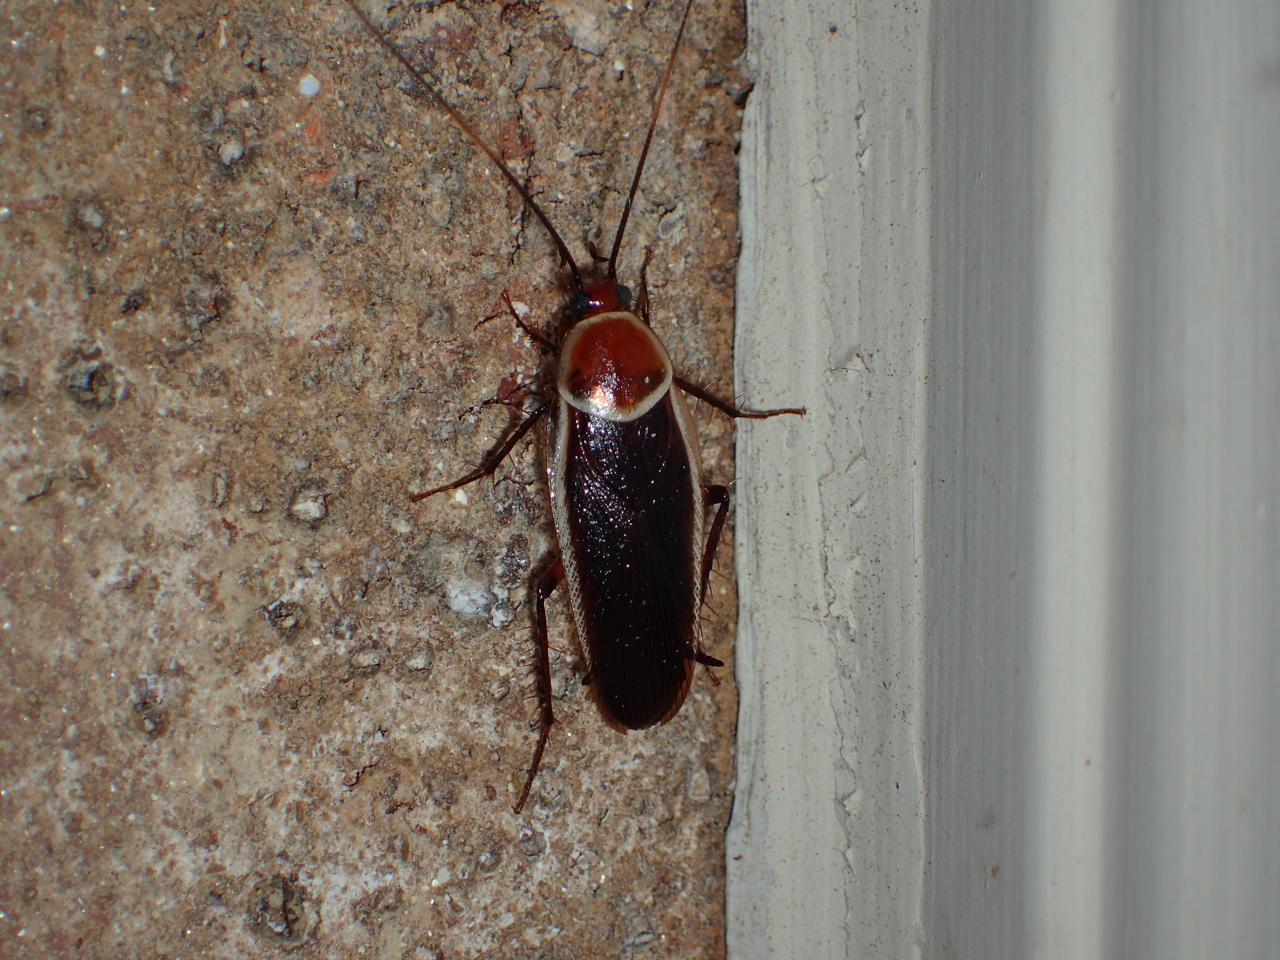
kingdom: Animalia
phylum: Arthropoda
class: Insecta
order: Blattodea
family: Ectobiidae
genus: Pseudomops
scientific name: Pseudomops septentrionalis
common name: Pale-bordered field cockroach
